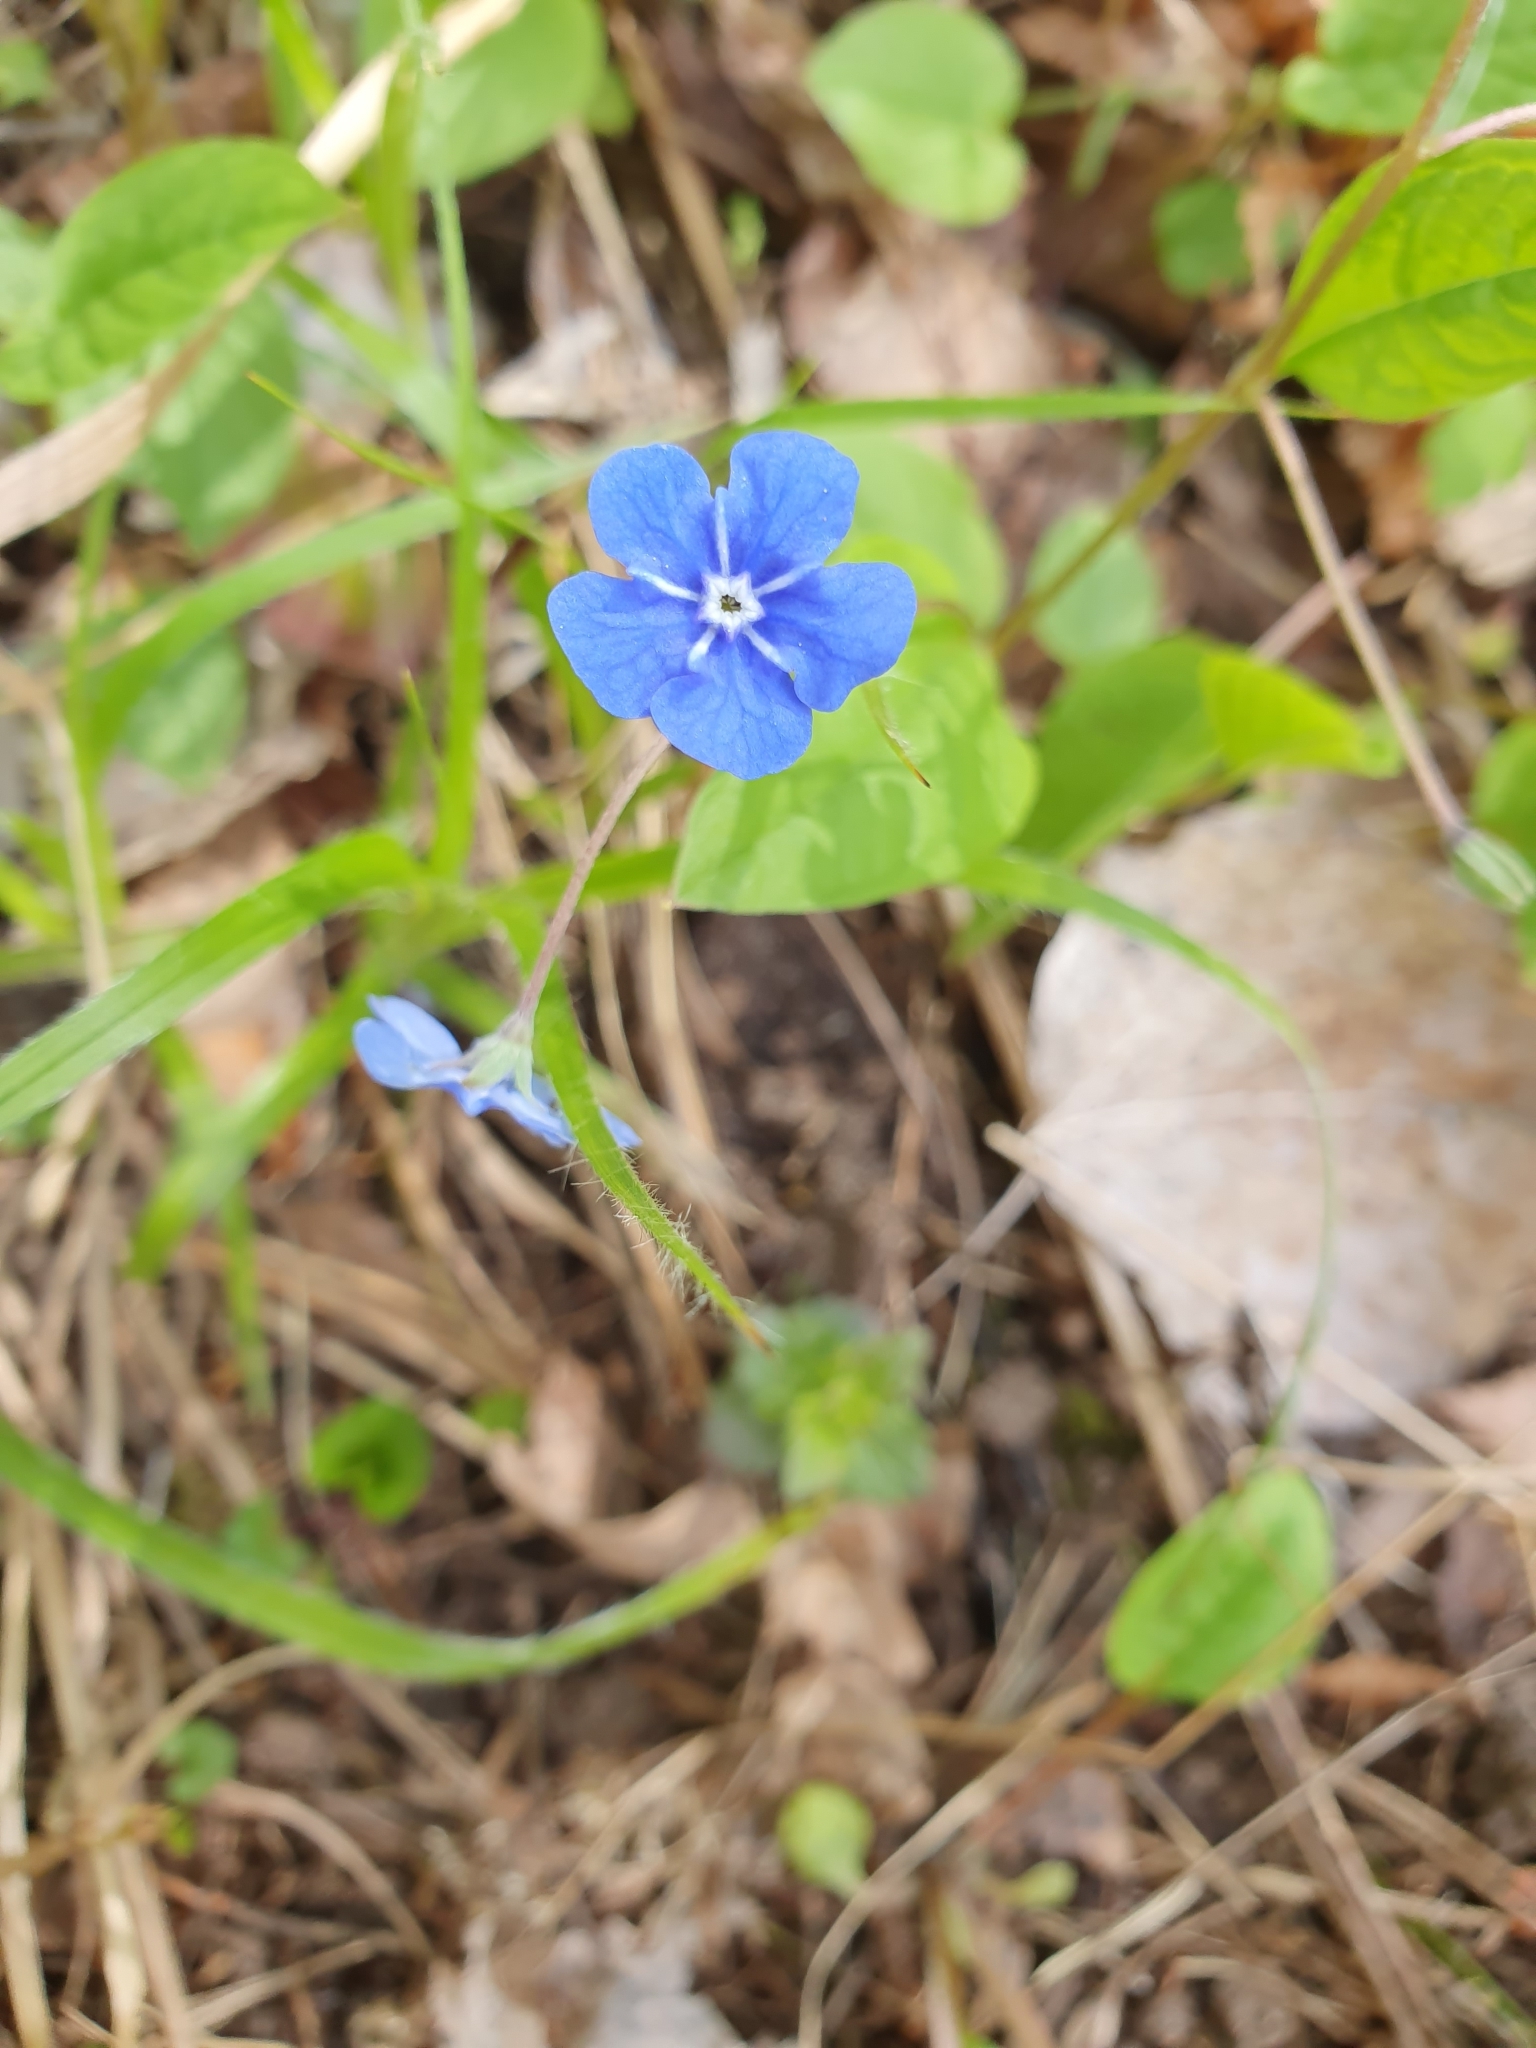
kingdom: Plantae
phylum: Tracheophyta
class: Magnoliopsida
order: Boraginales
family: Boraginaceae
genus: Omphalodes
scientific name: Omphalodes verna
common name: Blue-eyed-mary
